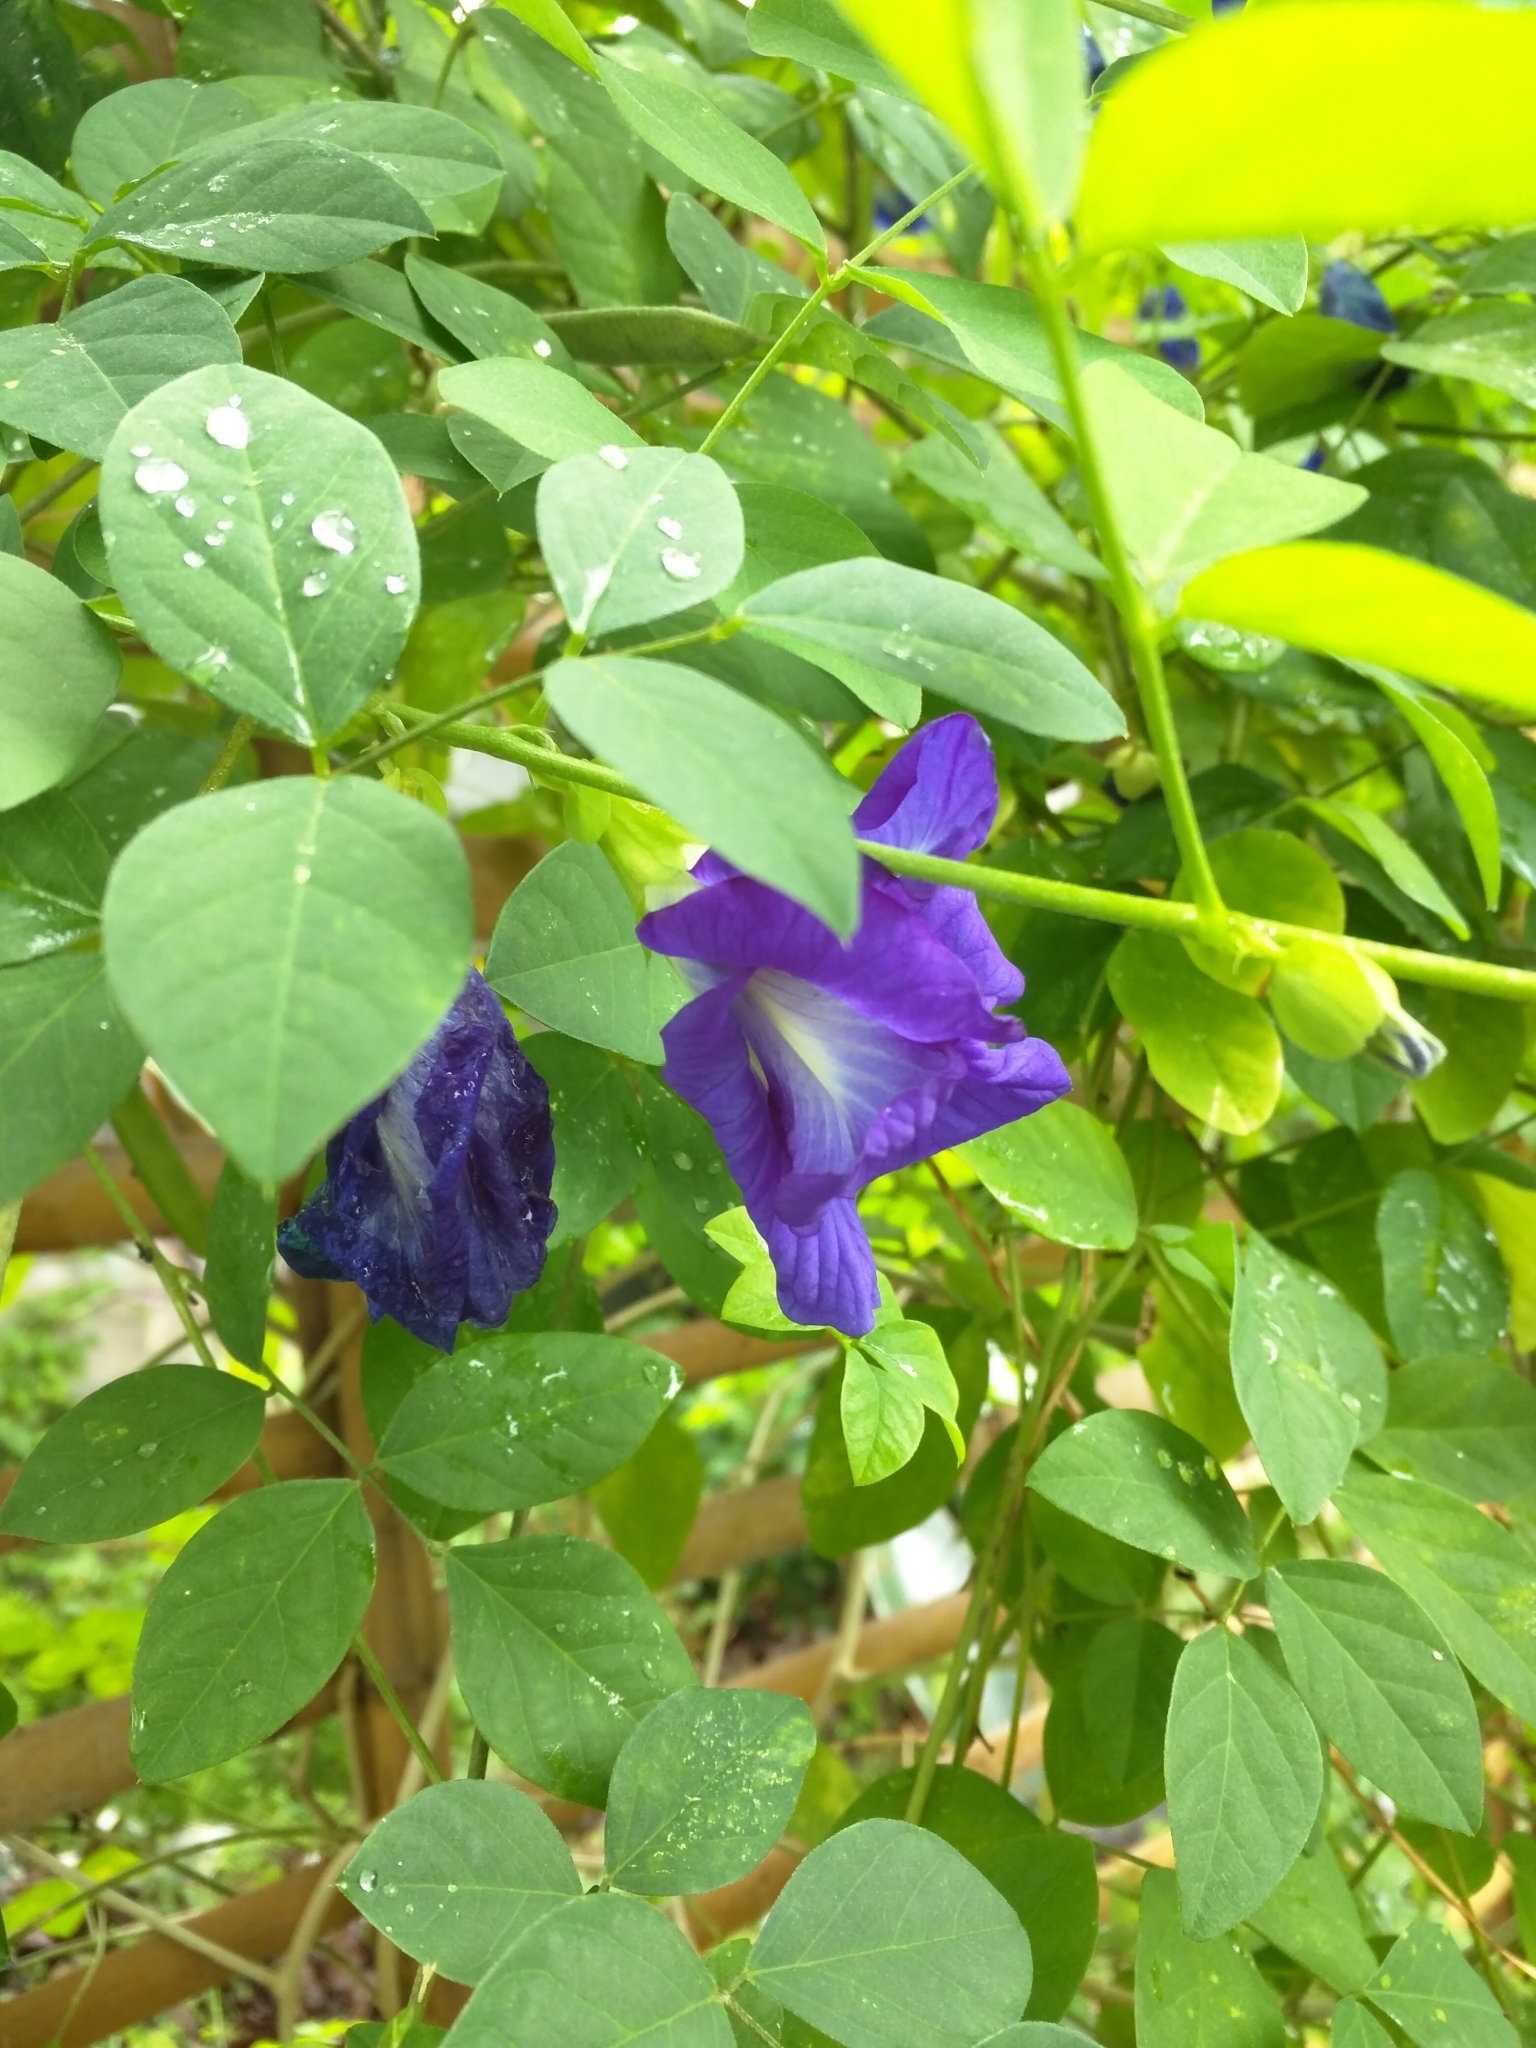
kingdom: Plantae
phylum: Tracheophyta
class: Magnoliopsida
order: Fabales
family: Fabaceae
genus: Clitoria
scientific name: Clitoria ternatea
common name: Asian pigeonwings
